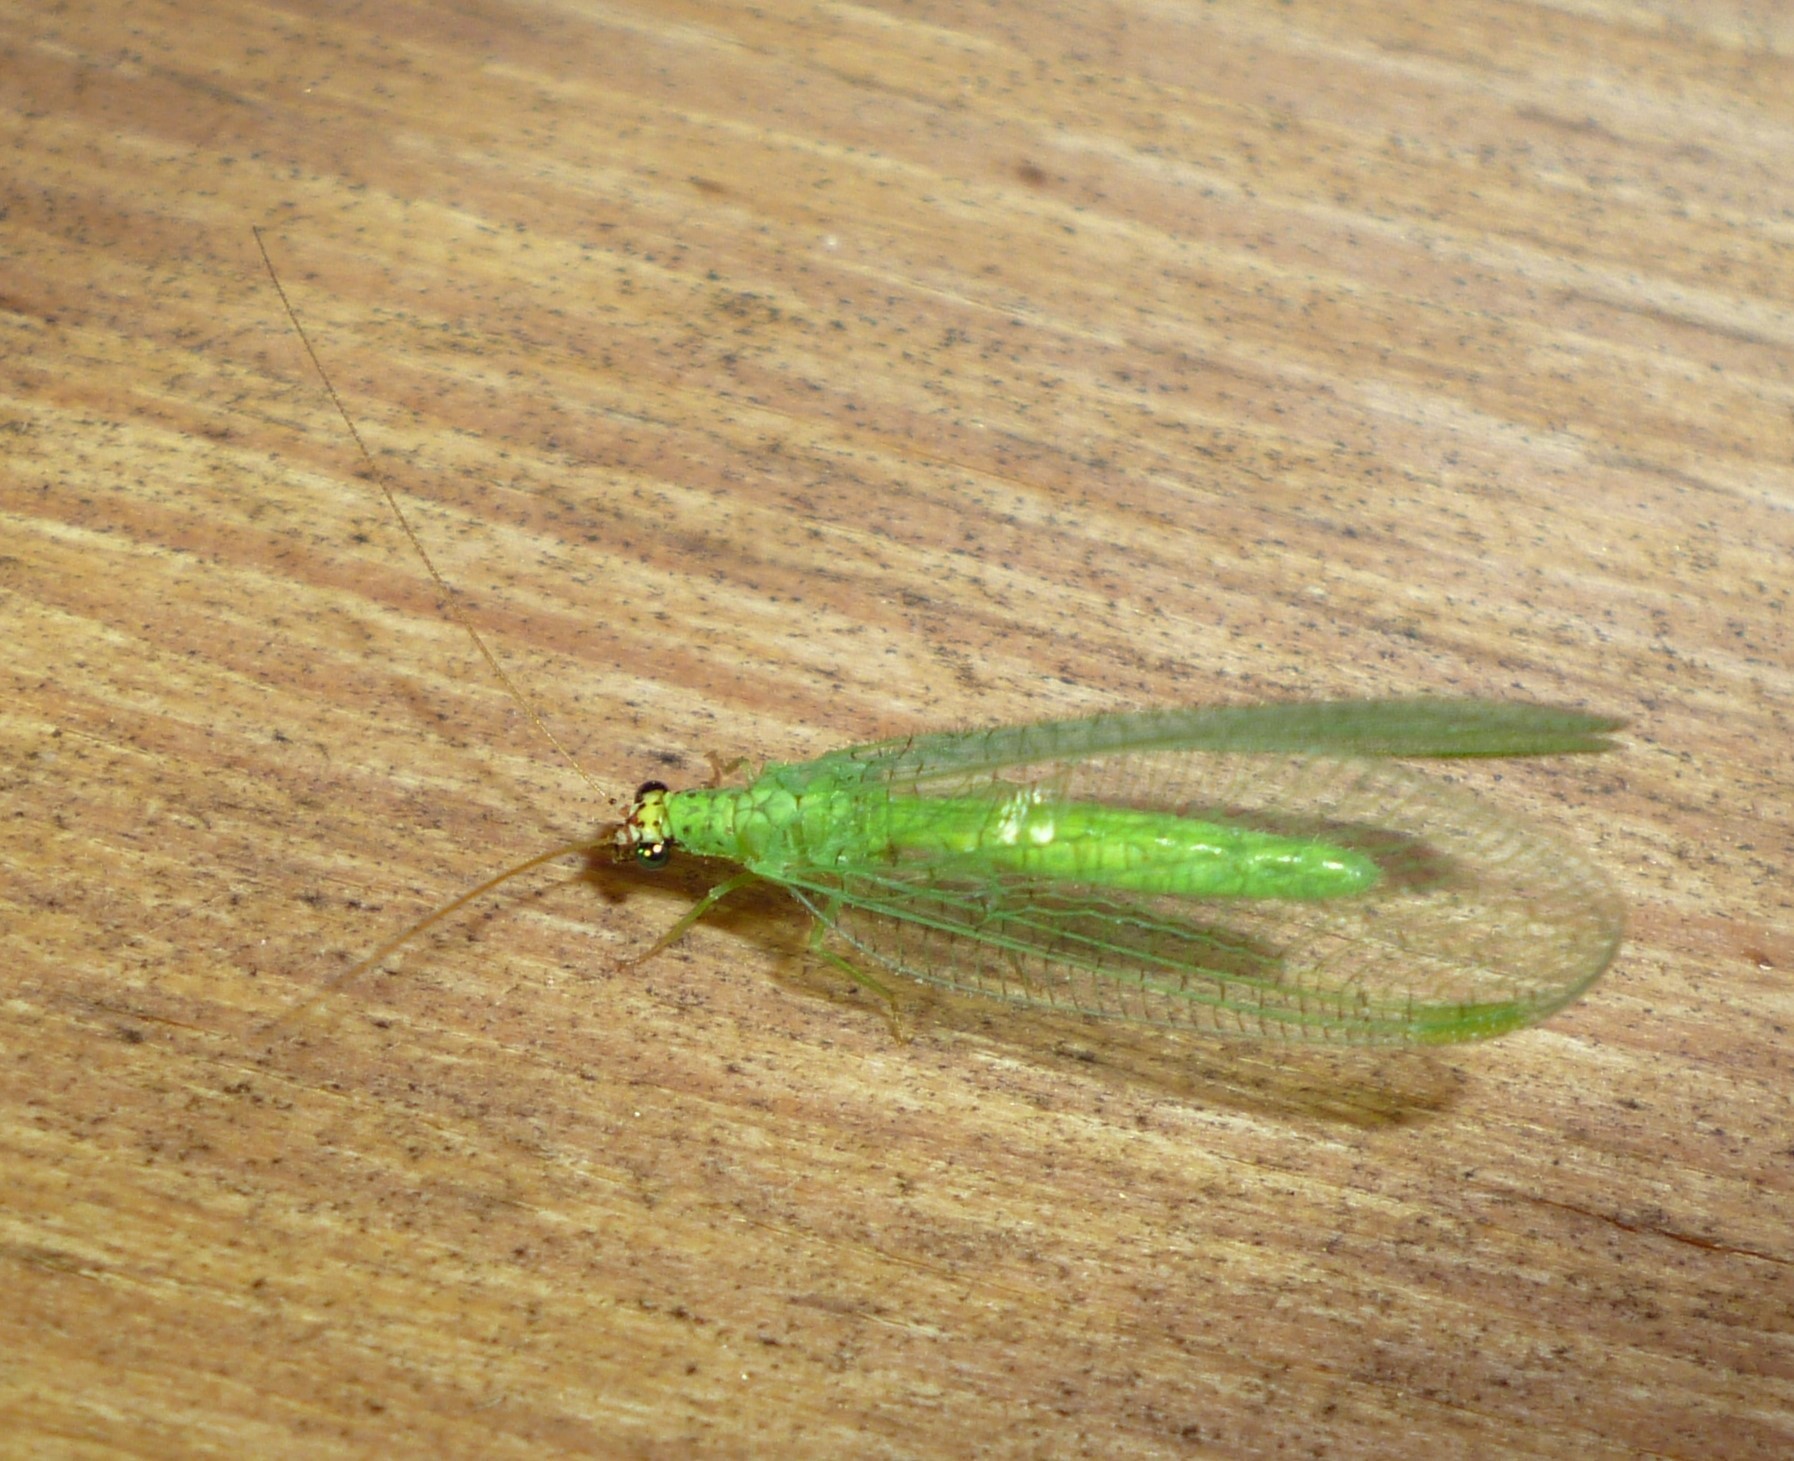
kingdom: Animalia
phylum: Arthropoda
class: Insecta
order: Neuroptera
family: Chrysopidae
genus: Chrysopa
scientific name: Chrysopa oculata
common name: Golden-eyed lacewing
